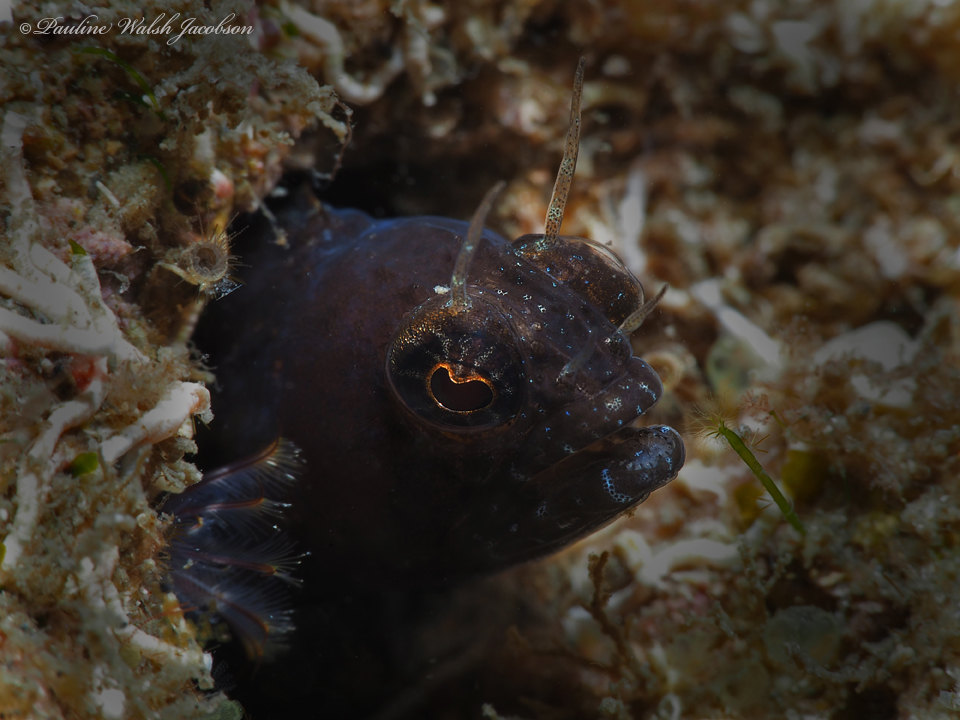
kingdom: Animalia
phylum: Chordata
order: Perciformes
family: Chaenopsidae
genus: Emblemaria
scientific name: Emblemaria pandionis
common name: Sailfin blenny
